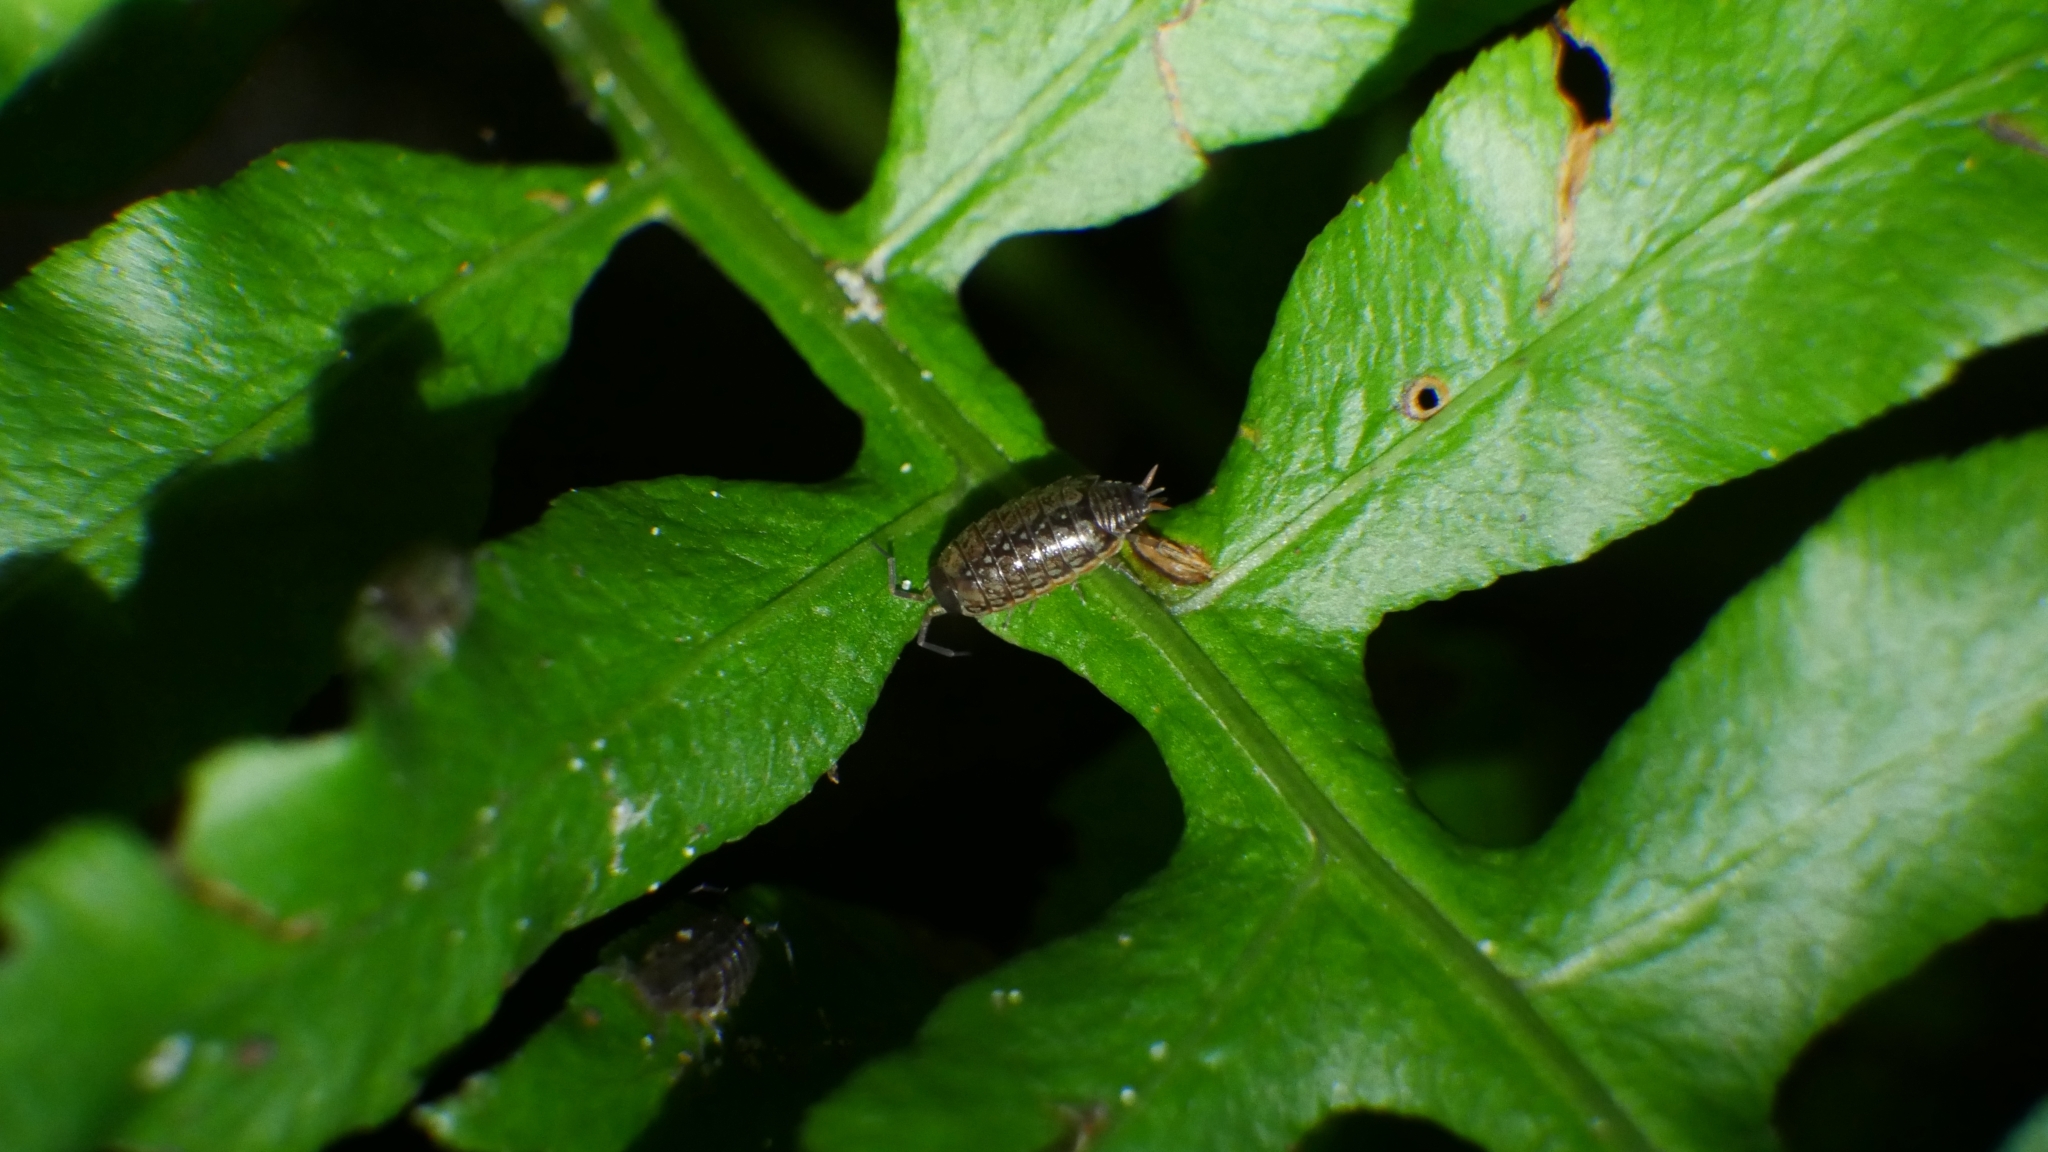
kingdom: Animalia
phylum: Arthropoda
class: Malacostraca
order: Isopoda
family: Philosciidae
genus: Philoscia
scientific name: Philoscia muscorum
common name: Common striped woodlouse
